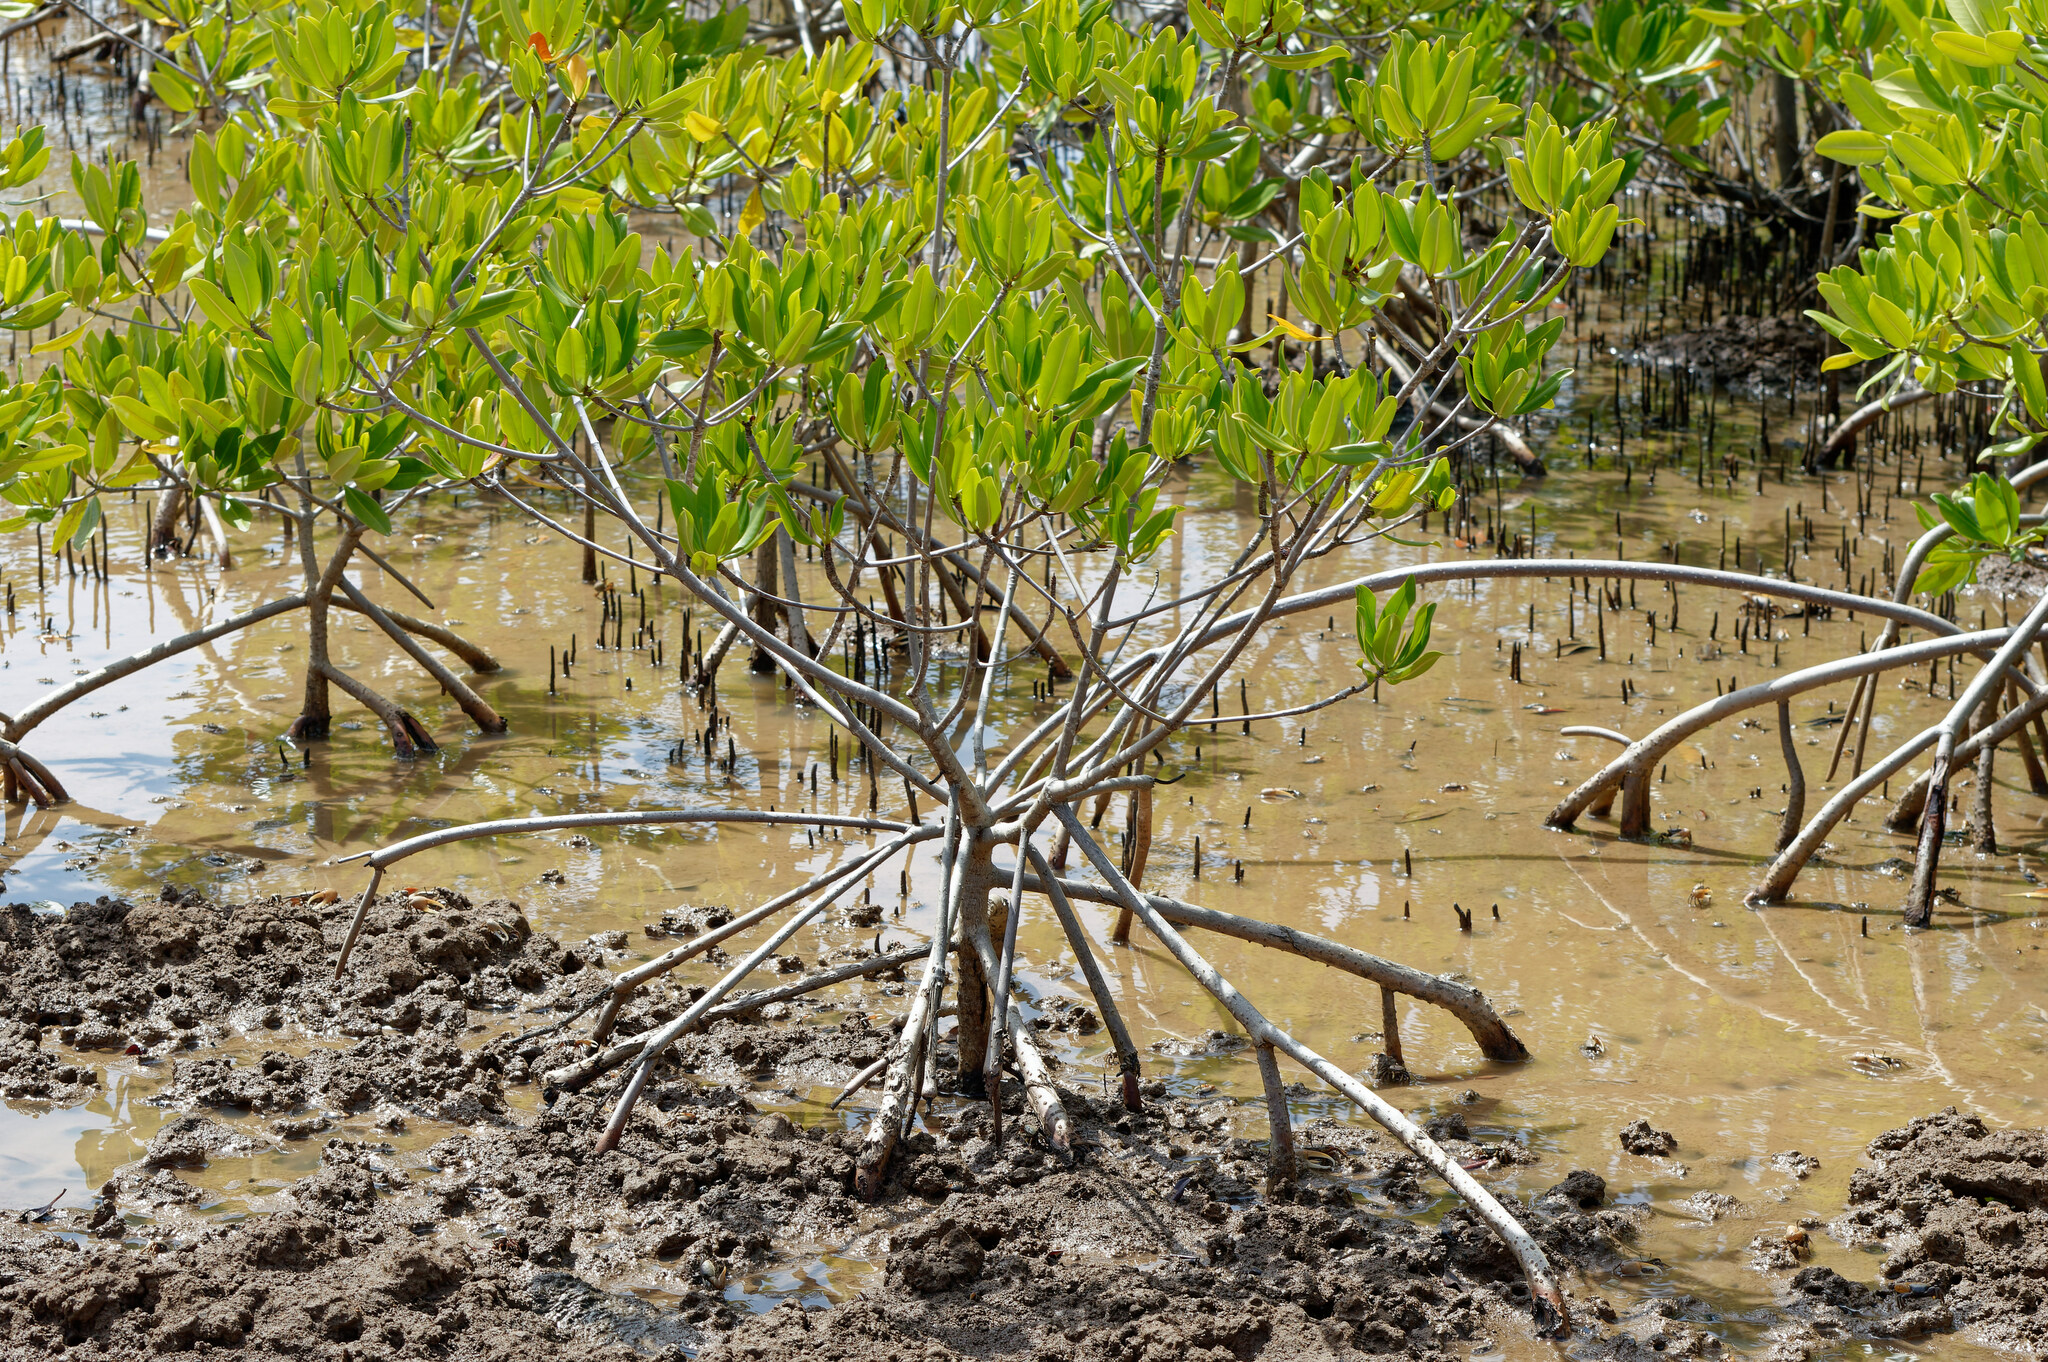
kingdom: Plantae
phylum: Tracheophyta
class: Magnoliopsida
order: Malpighiales
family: Rhizophoraceae
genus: Rhizophora
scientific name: Rhizophora mangle
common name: Red mangrove
